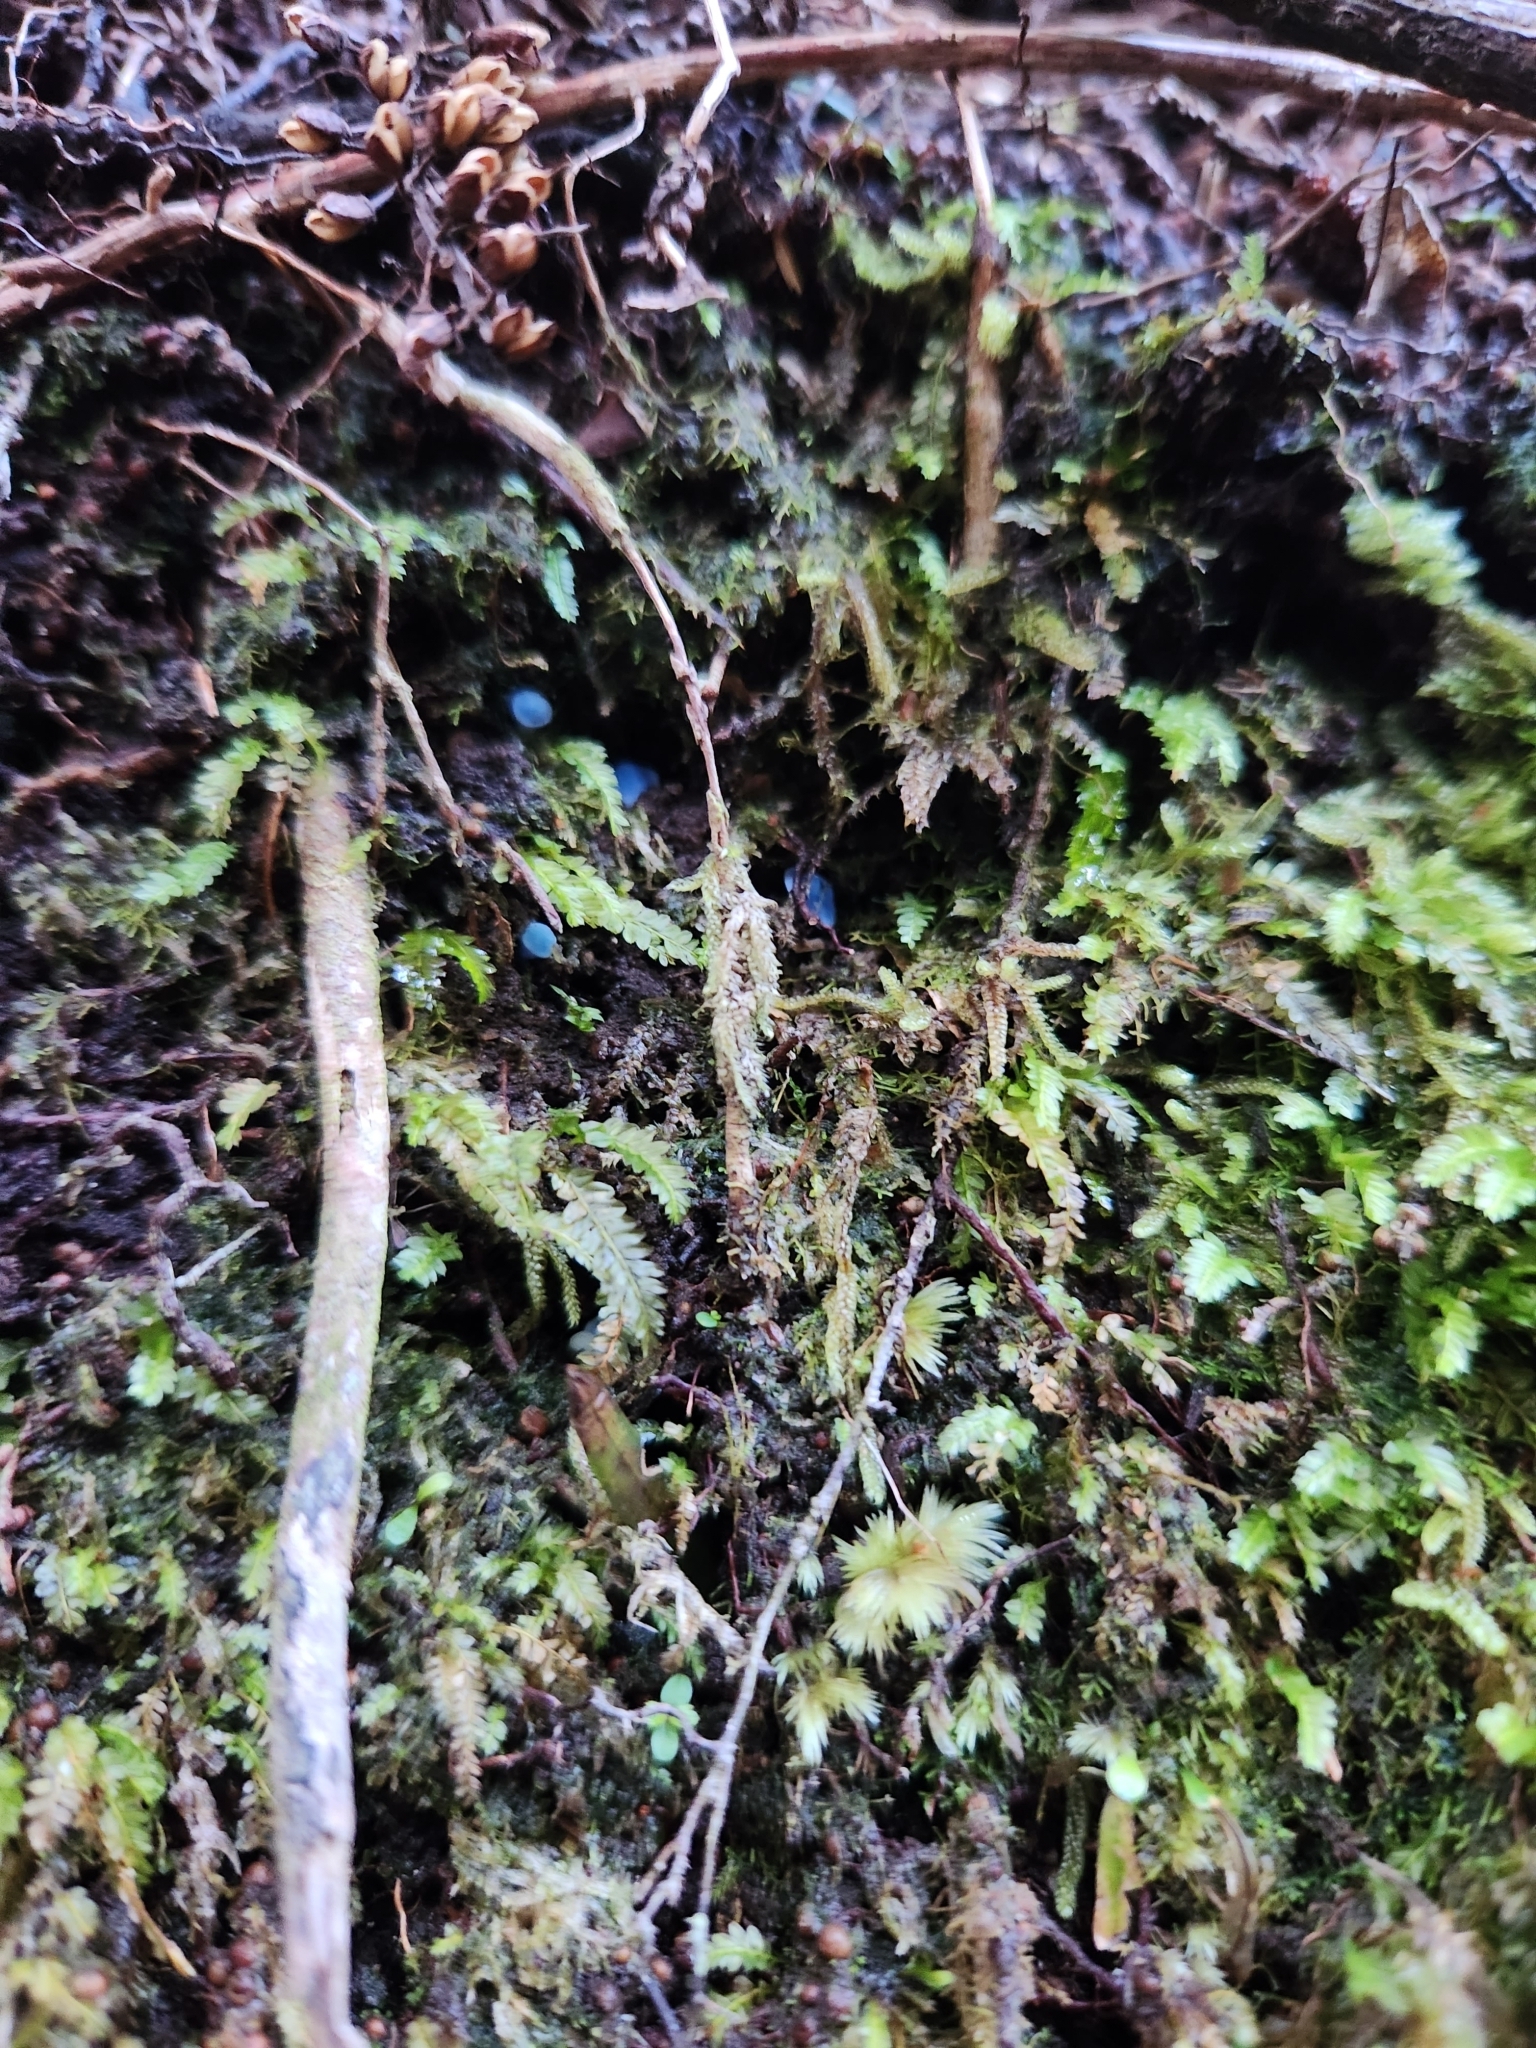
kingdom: Fungi
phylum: Basidiomycota
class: Agaricomycetes
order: Agaricales
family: Entolomataceae
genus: Entoloma
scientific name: Entoloma hochstetteri
